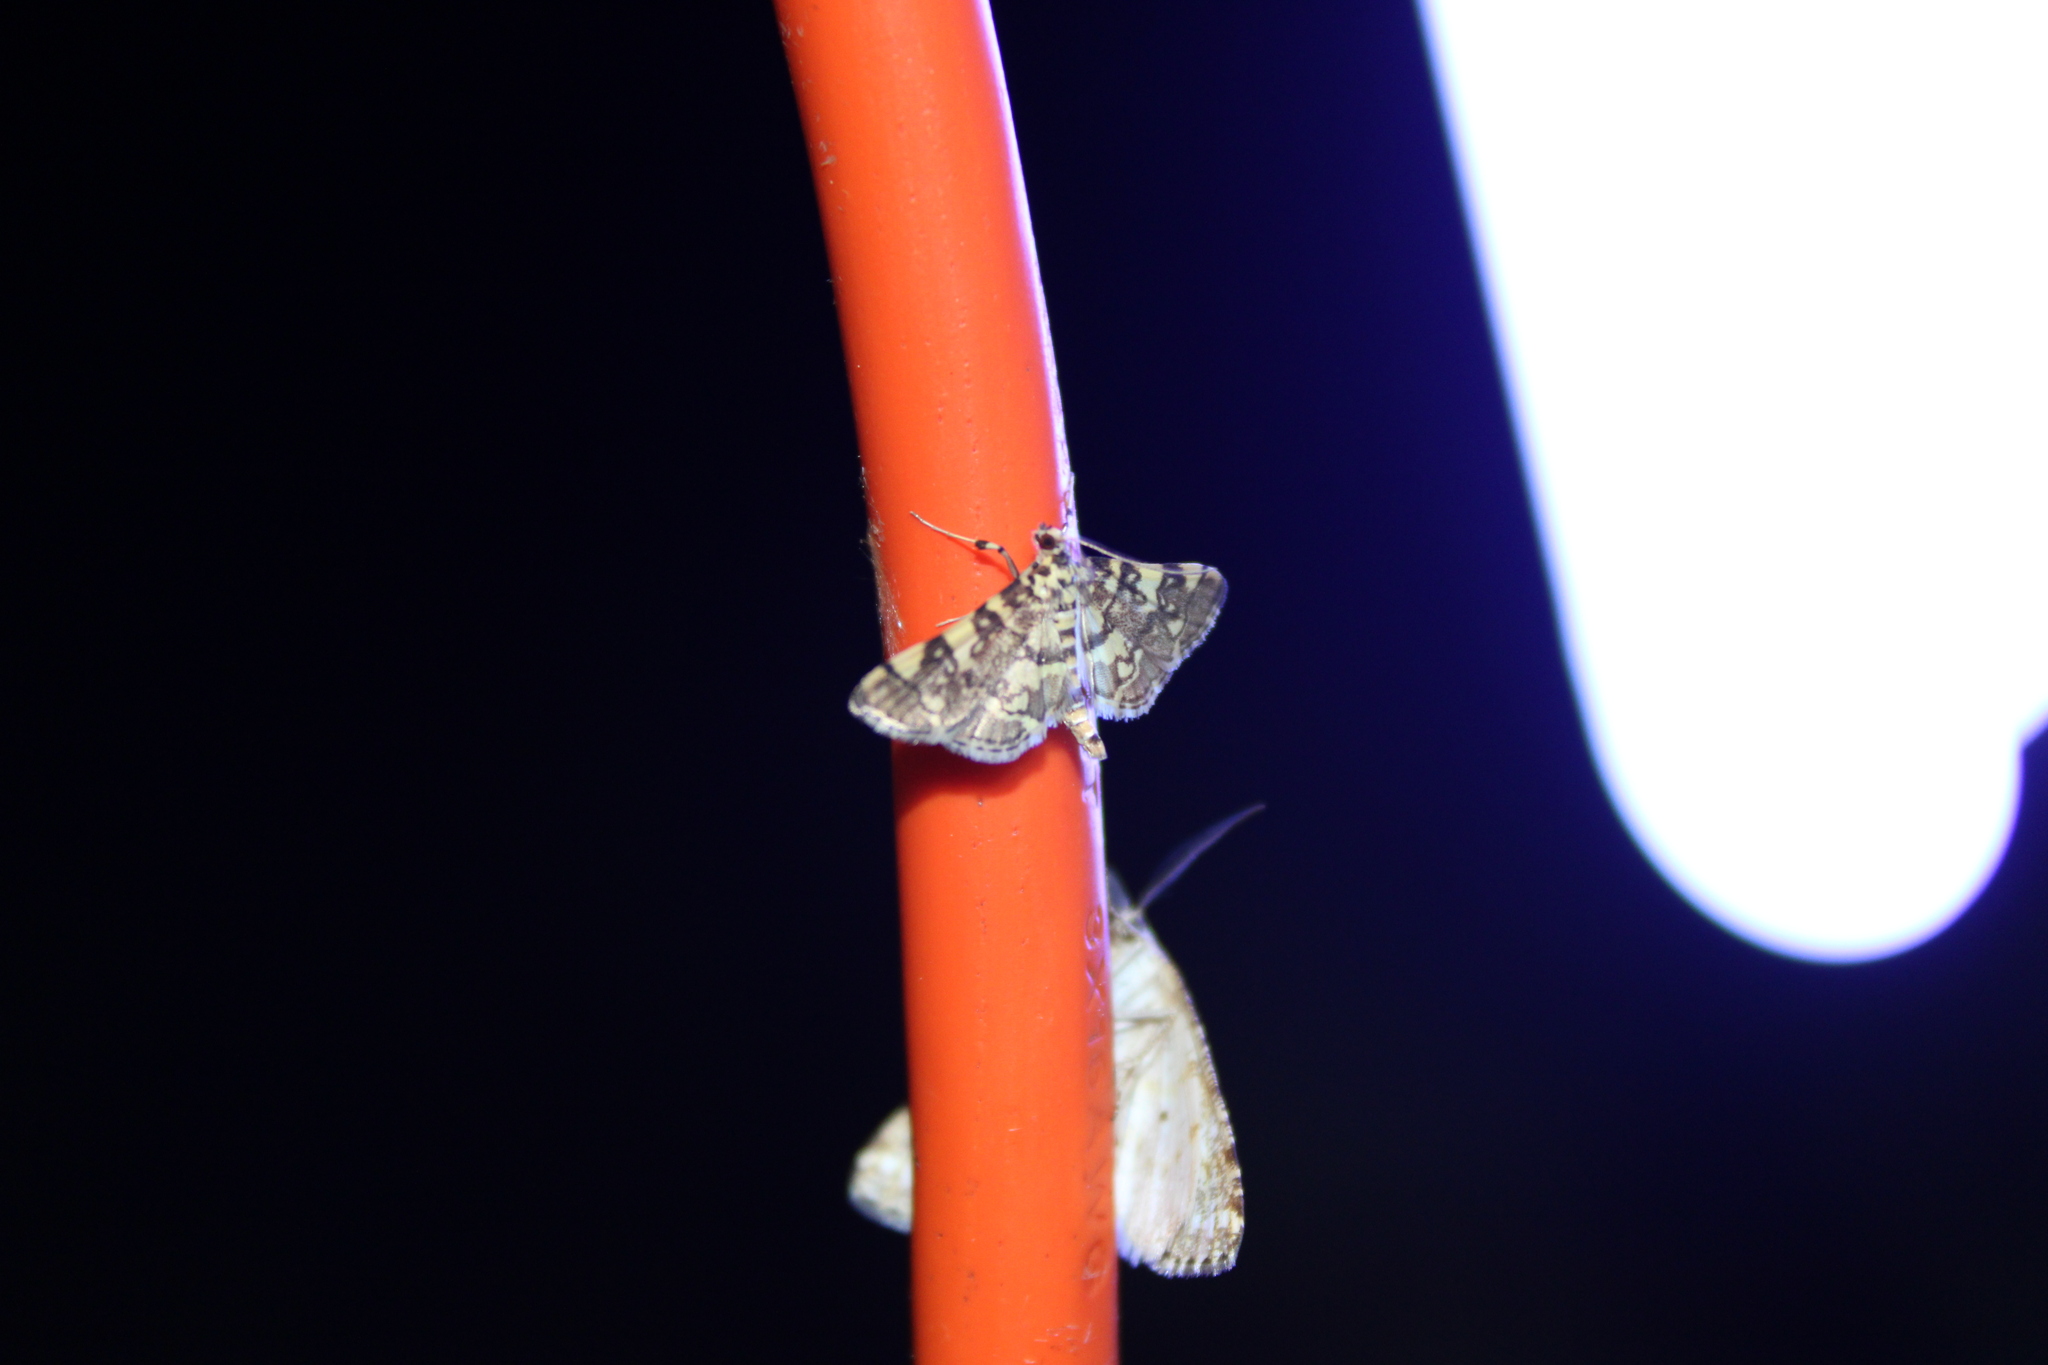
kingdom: Animalia
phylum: Arthropoda
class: Insecta
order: Lepidoptera
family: Crambidae
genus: Apogeshna
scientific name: Apogeshna stenialis
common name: Checkered apogeshna moth
